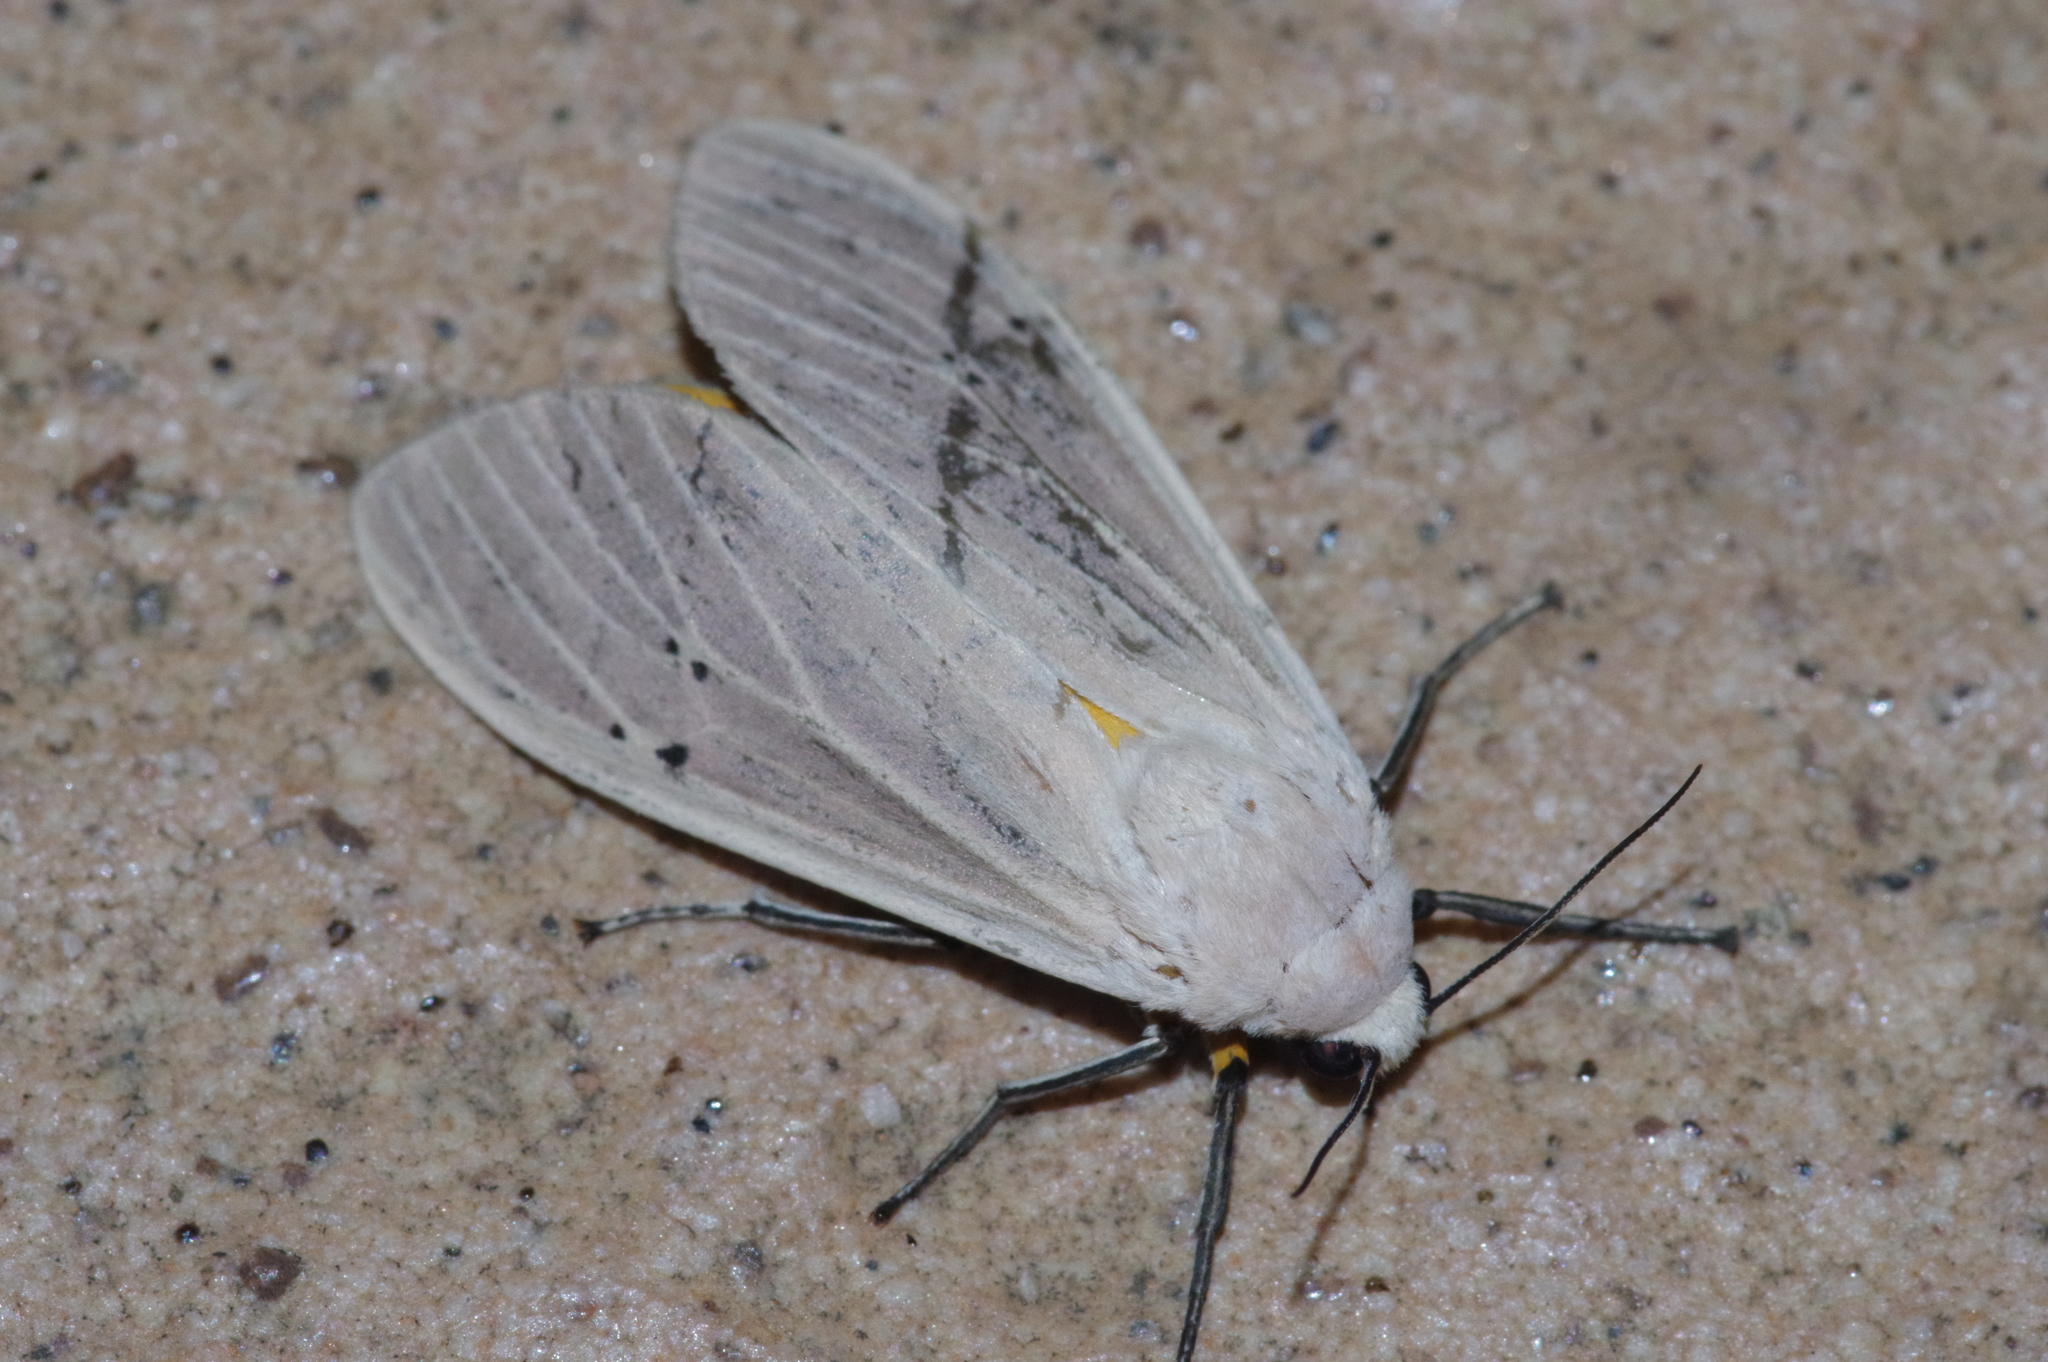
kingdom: Animalia
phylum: Arthropoda
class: Insecta
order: Lepidoptera
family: Erebidae
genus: Creatonotos
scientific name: Creatonotos transiens
